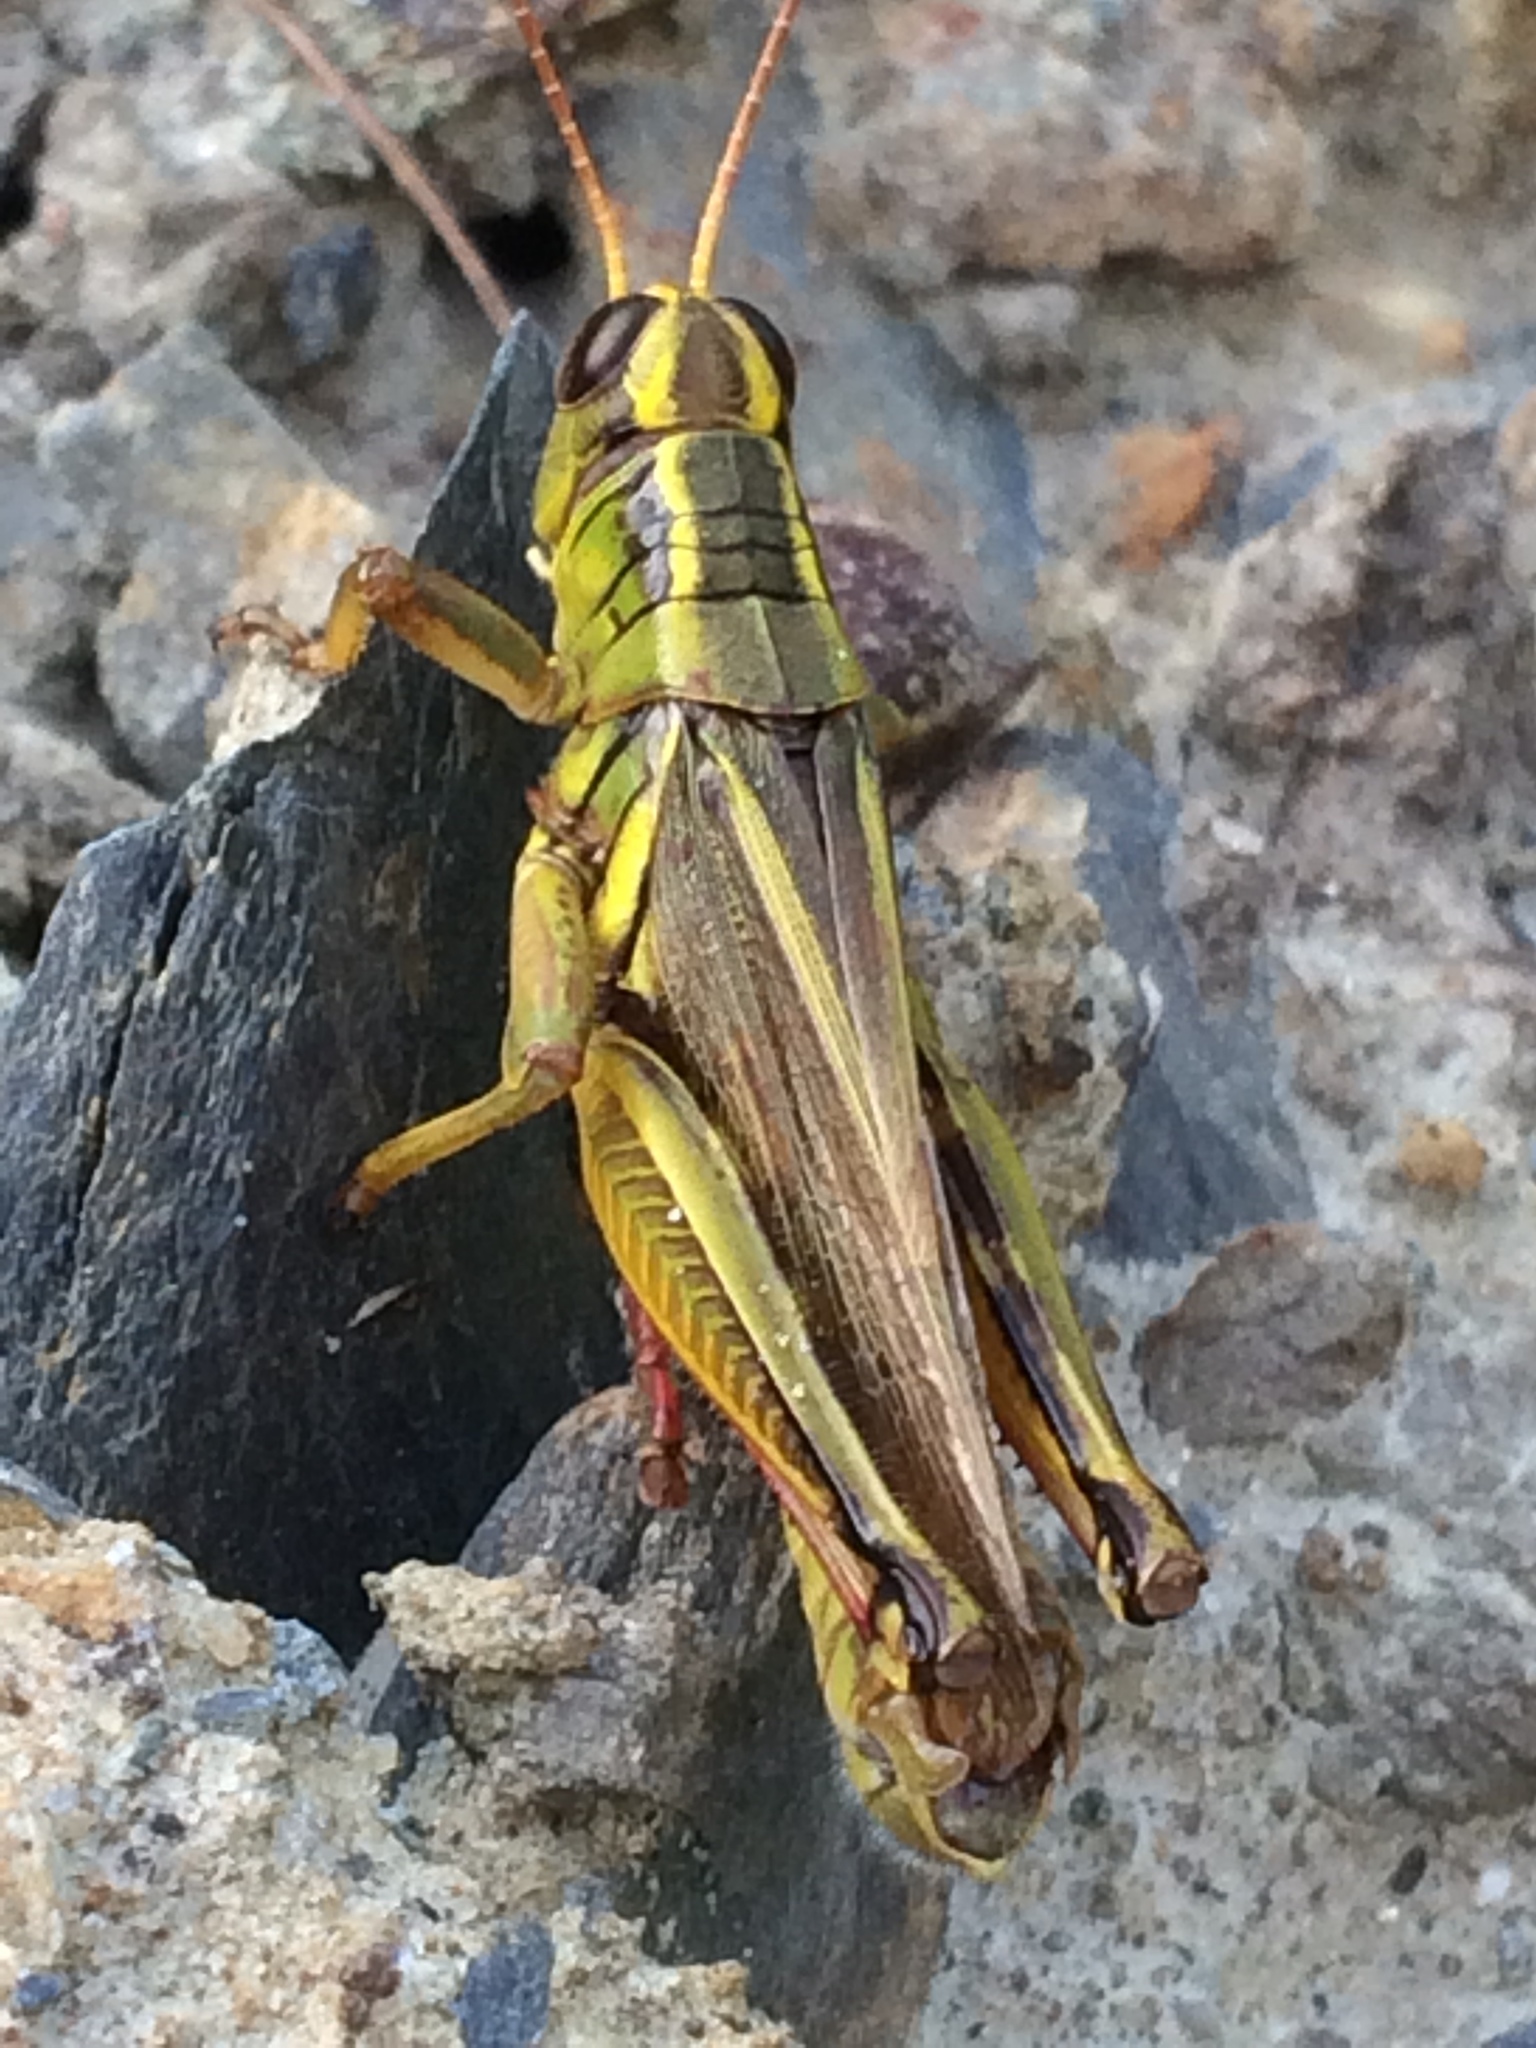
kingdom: Animalia
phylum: Arthropoda
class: Insecta
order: Orthoptera
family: Acrididae
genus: Melanoplus
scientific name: Melanoplus bivittatus
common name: Two-striped grasshopper
